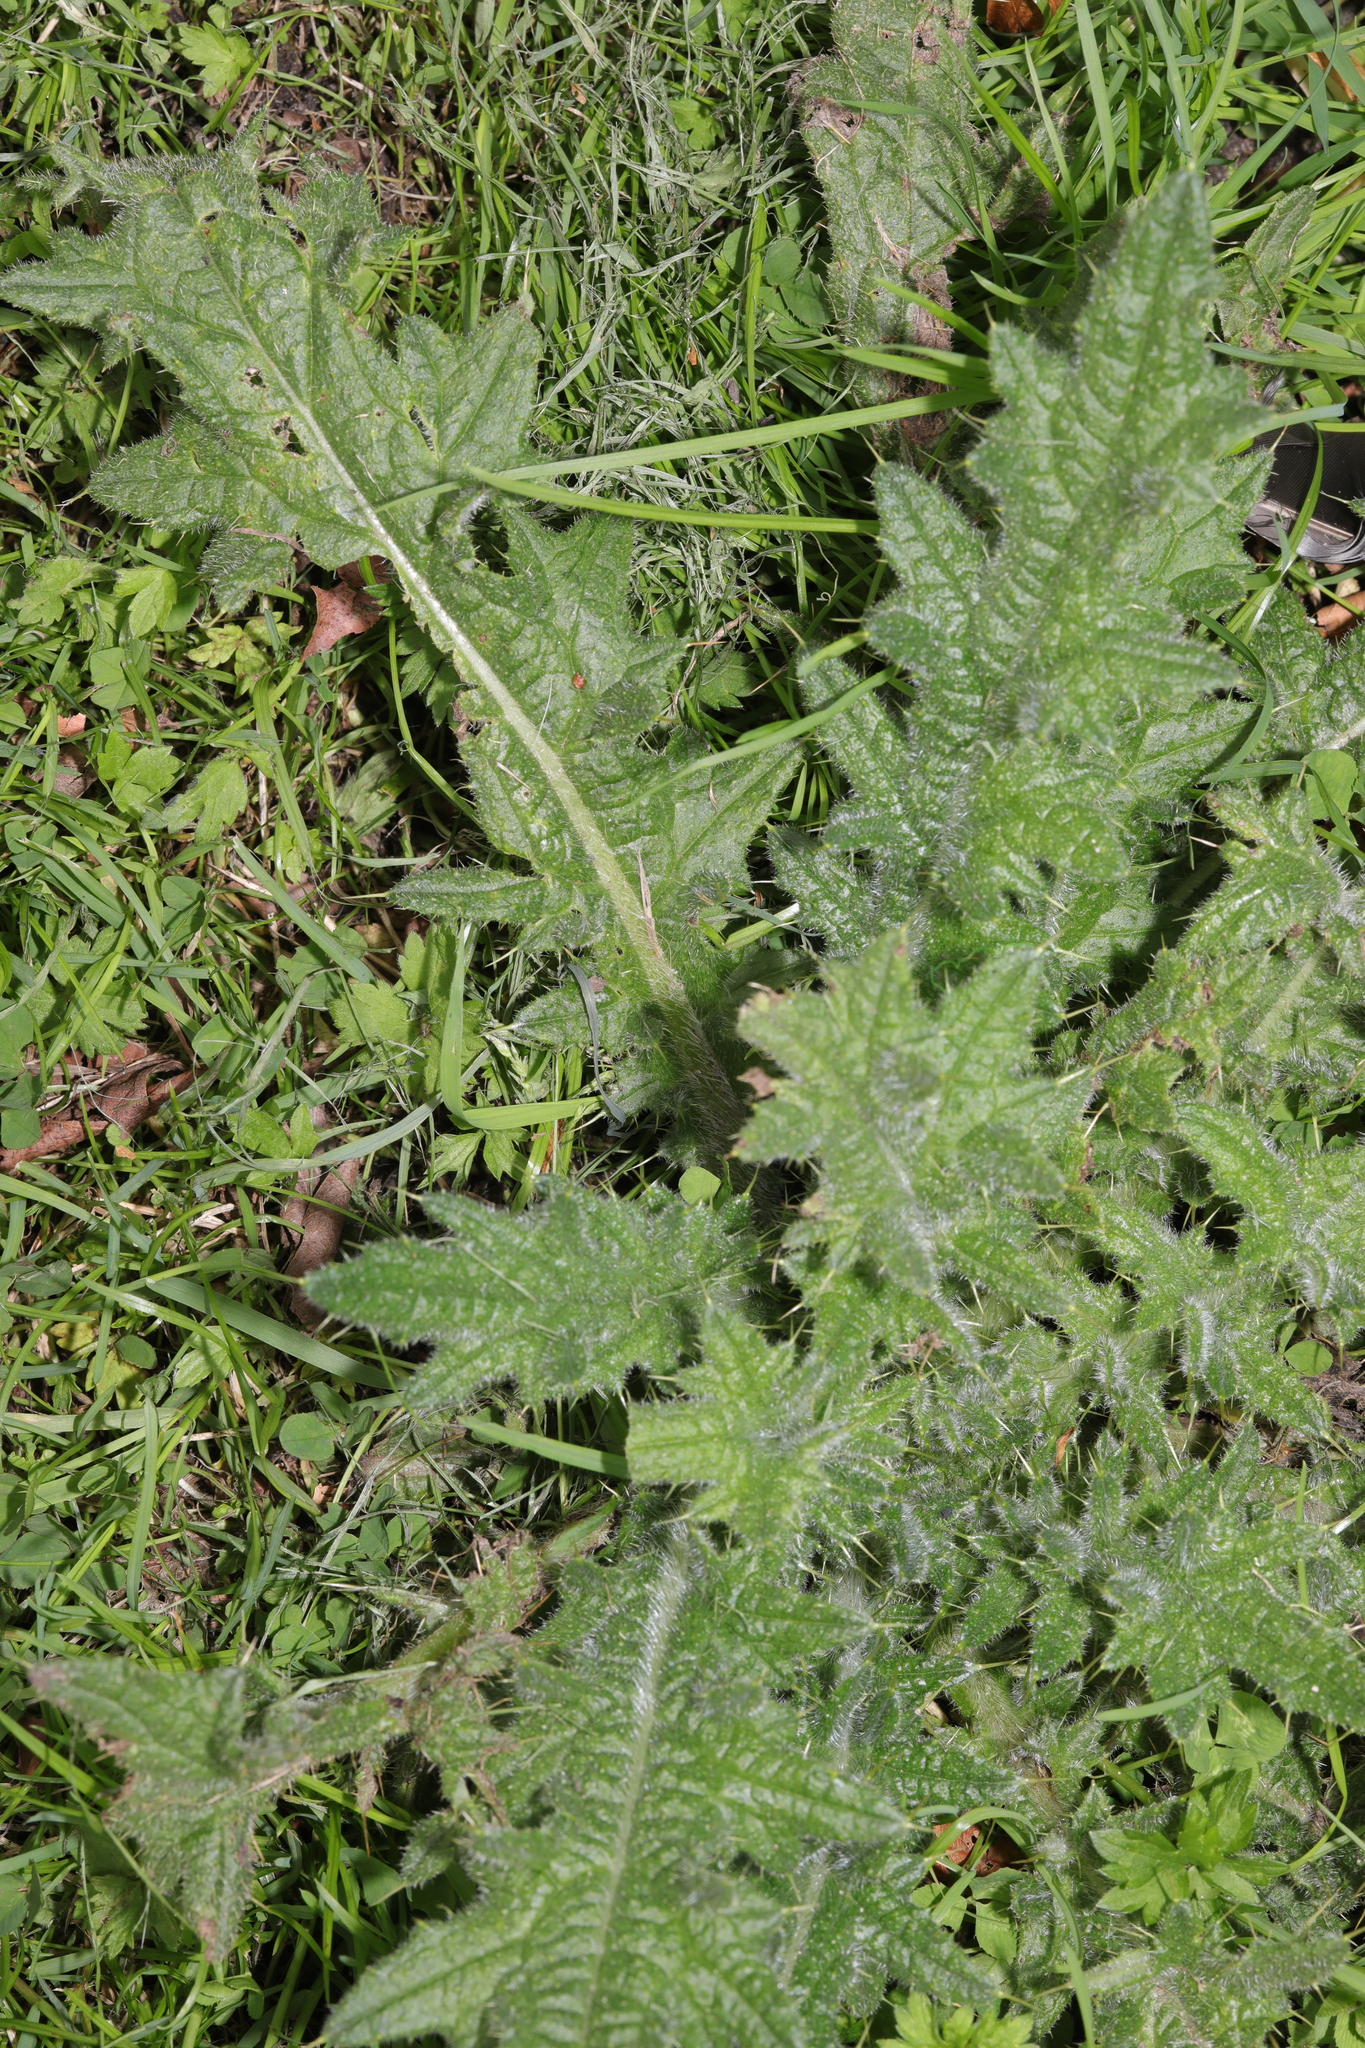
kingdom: Plantae
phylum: Tracheophyta
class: Magnoliopsida
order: Asterales
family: Asteraceae
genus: Cirsium
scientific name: Cirsium vulgare
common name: Bull thistle
